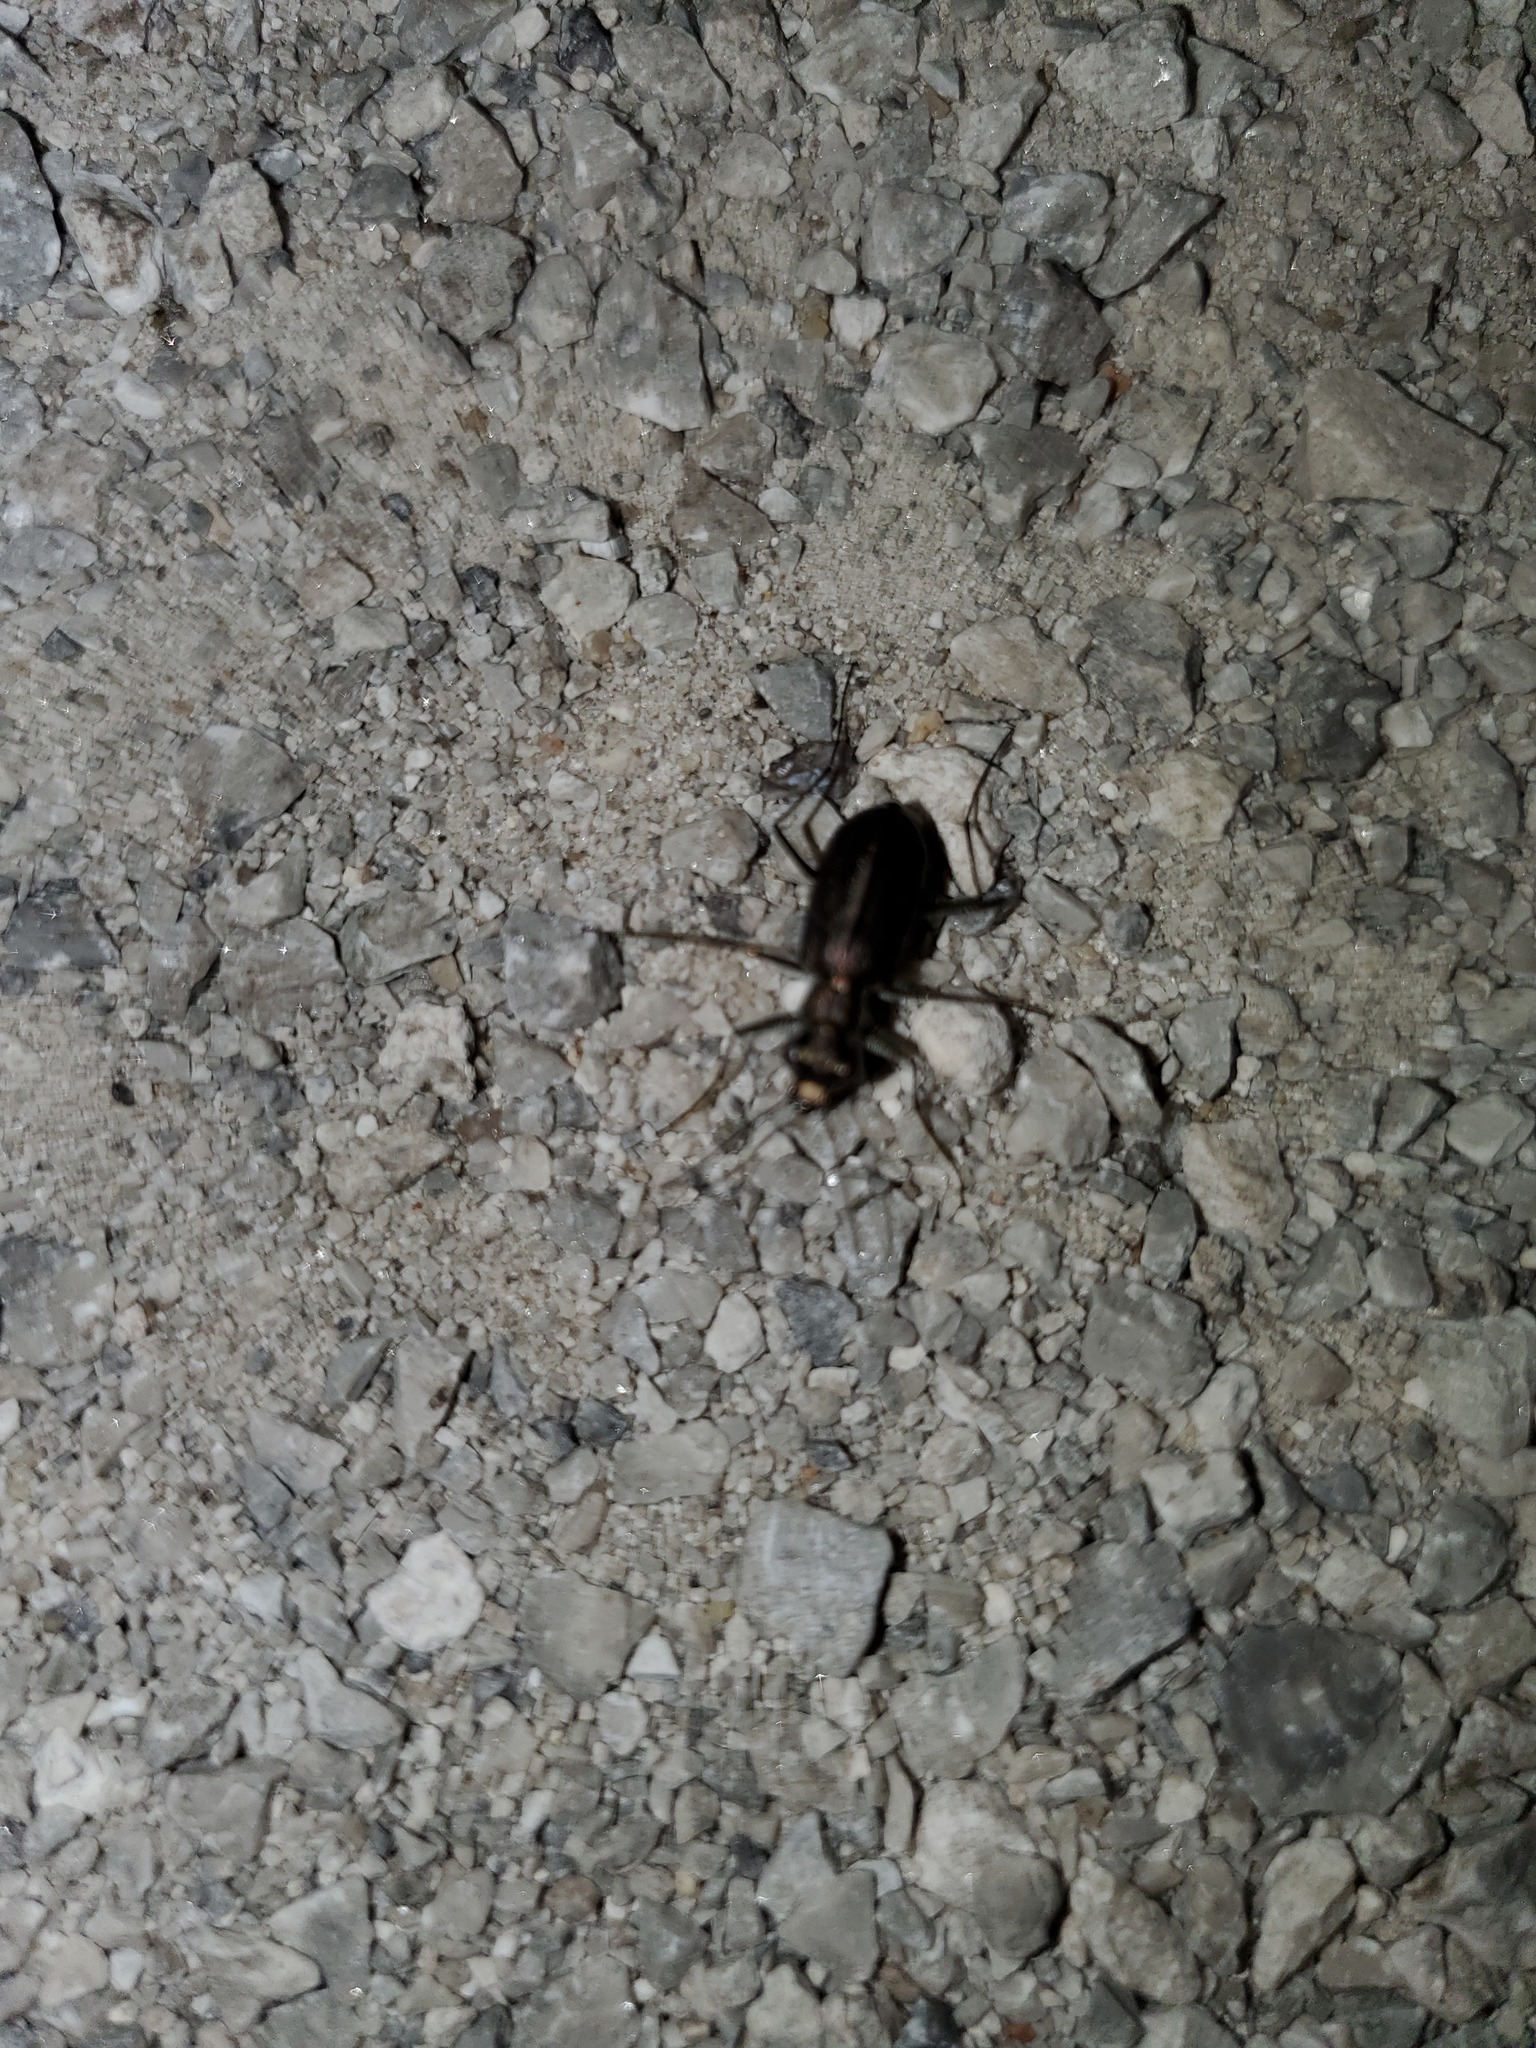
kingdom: Animalia
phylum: Arthropoda
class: Insecta
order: Coleoptera
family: Carabidae
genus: Cicindela
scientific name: Cicindela punctulata
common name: Punctured tiger beetle
